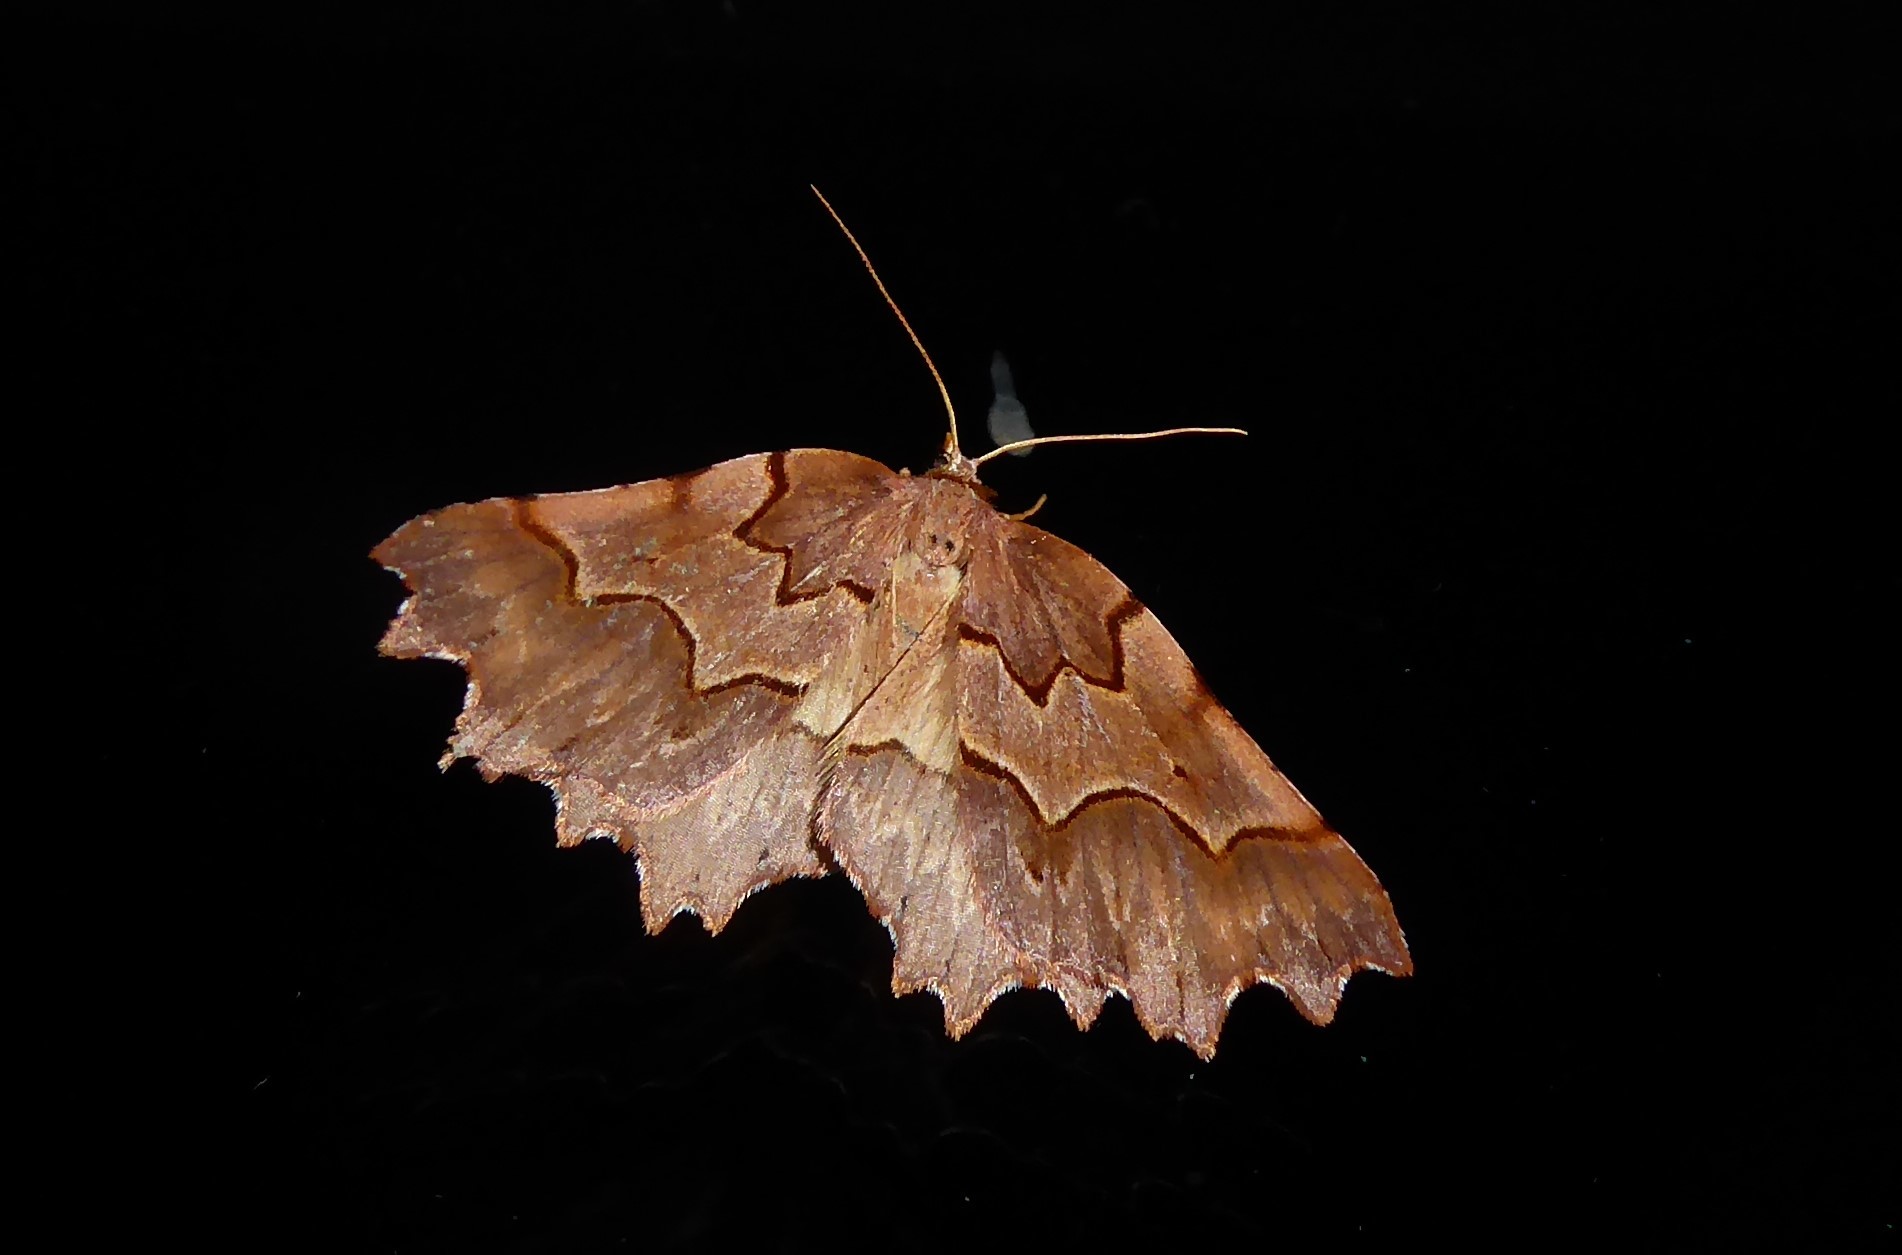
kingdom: Animalia
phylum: Arthropoda
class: Insecta
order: Lepidoptera
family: Geometridae
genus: Ischalis
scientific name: Ischalis fortinata
